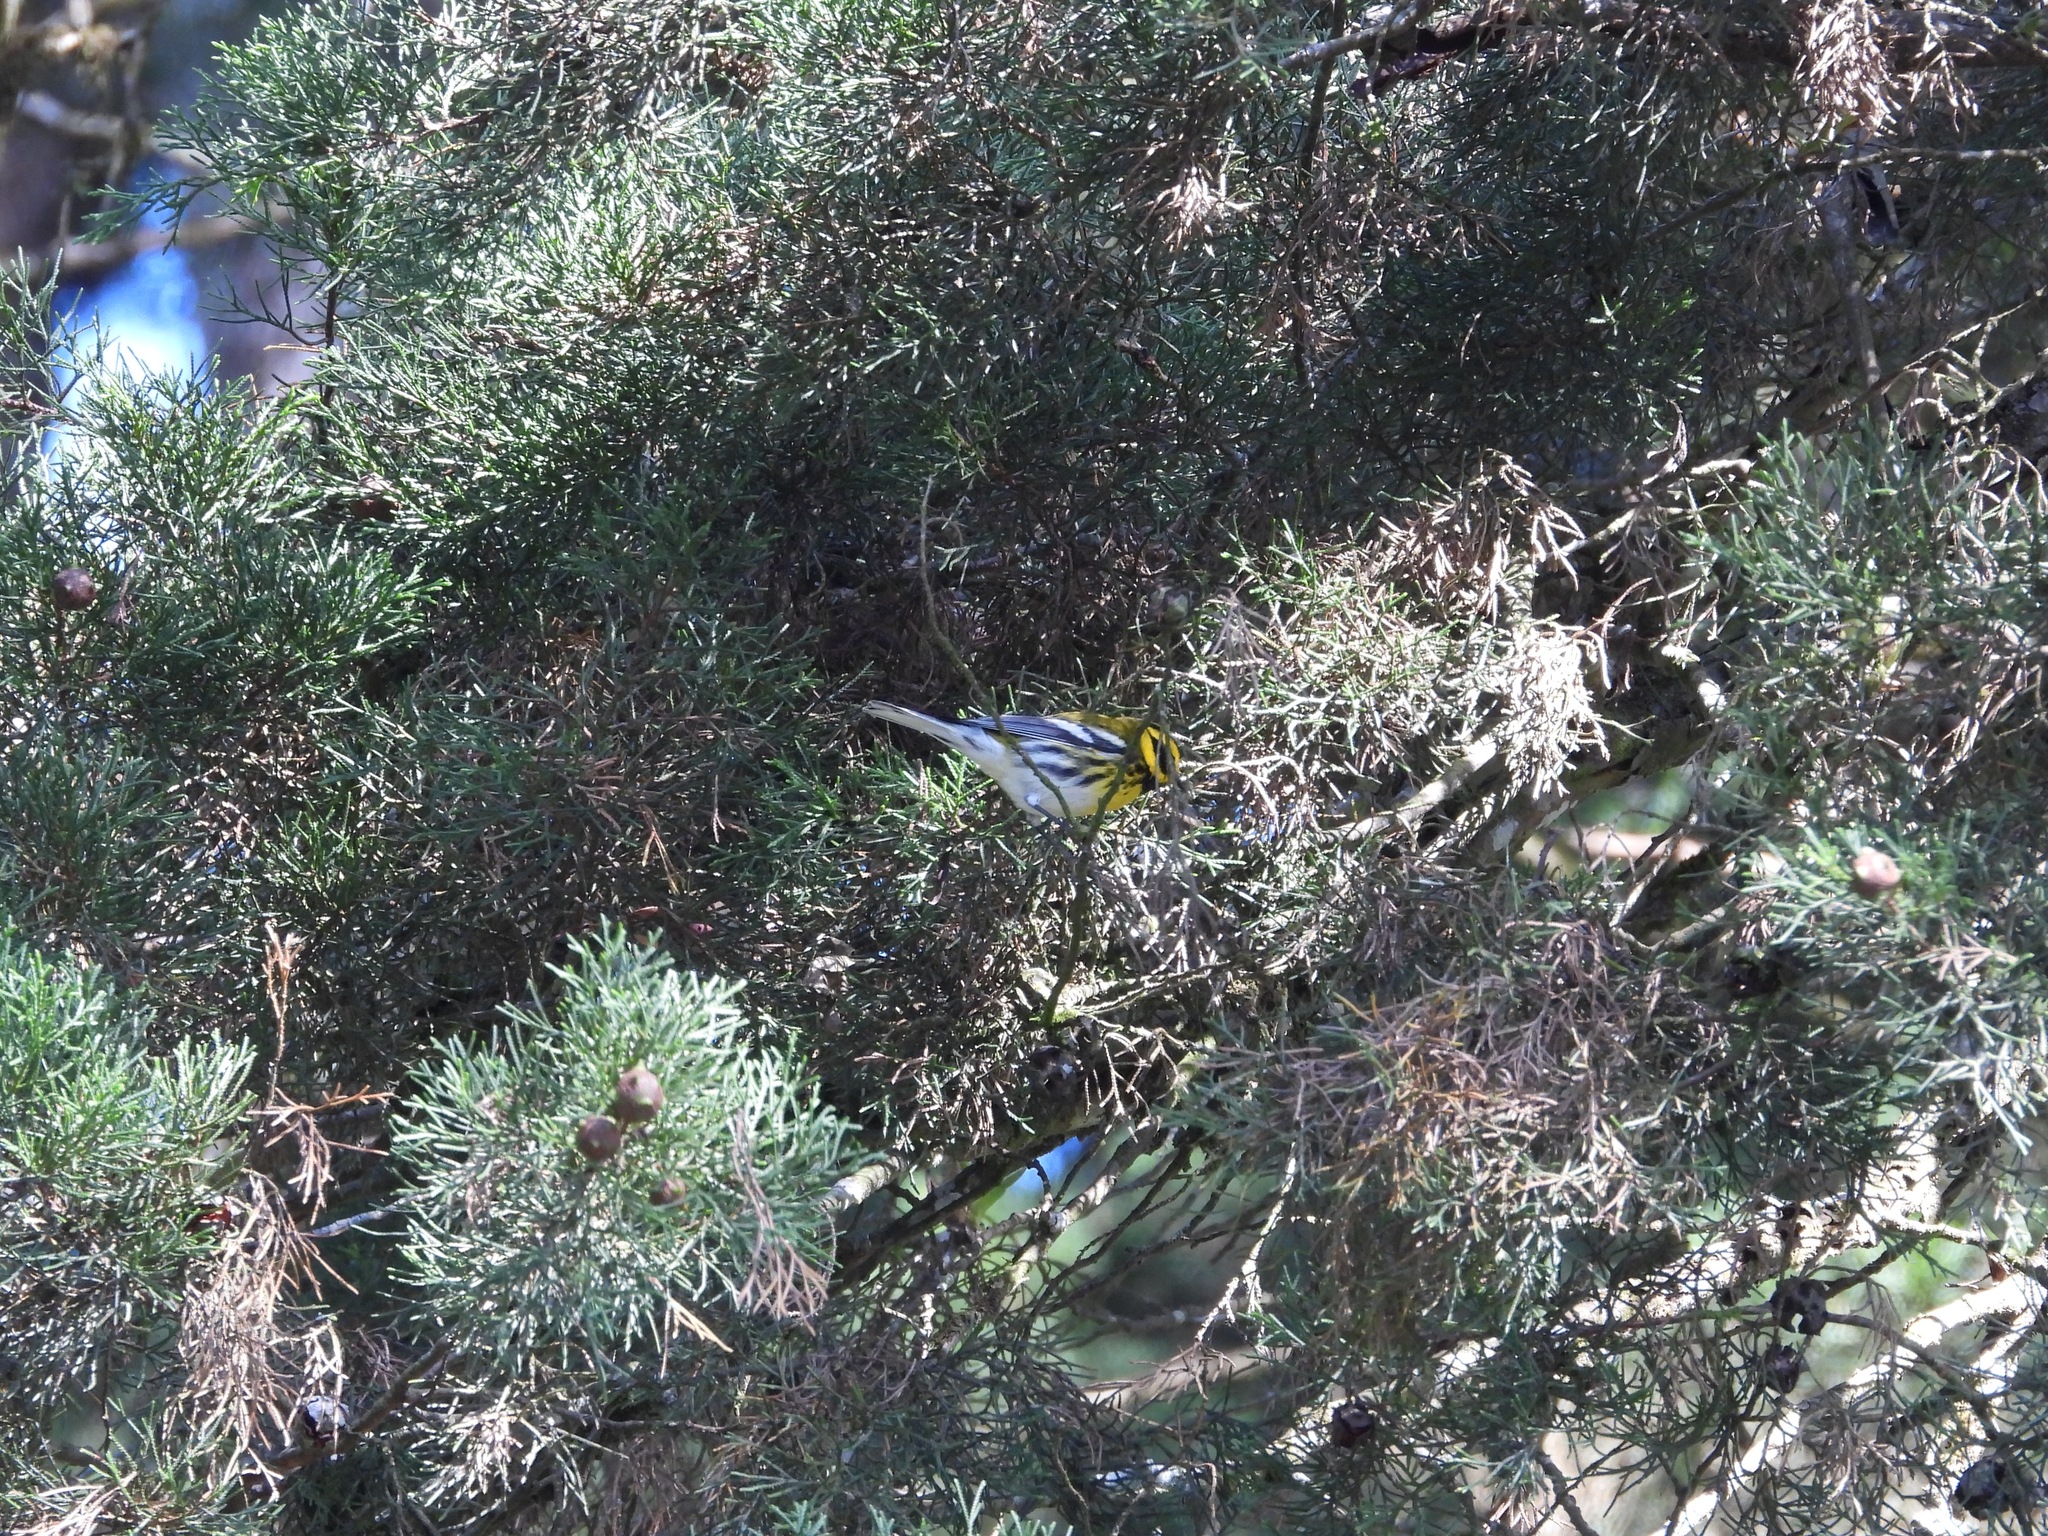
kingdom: Animalia
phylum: Chordata
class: Aves
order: Passeriformes
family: Parulidae
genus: Setophaga
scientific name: Setophaga townsendi
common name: Townsend's warbler
